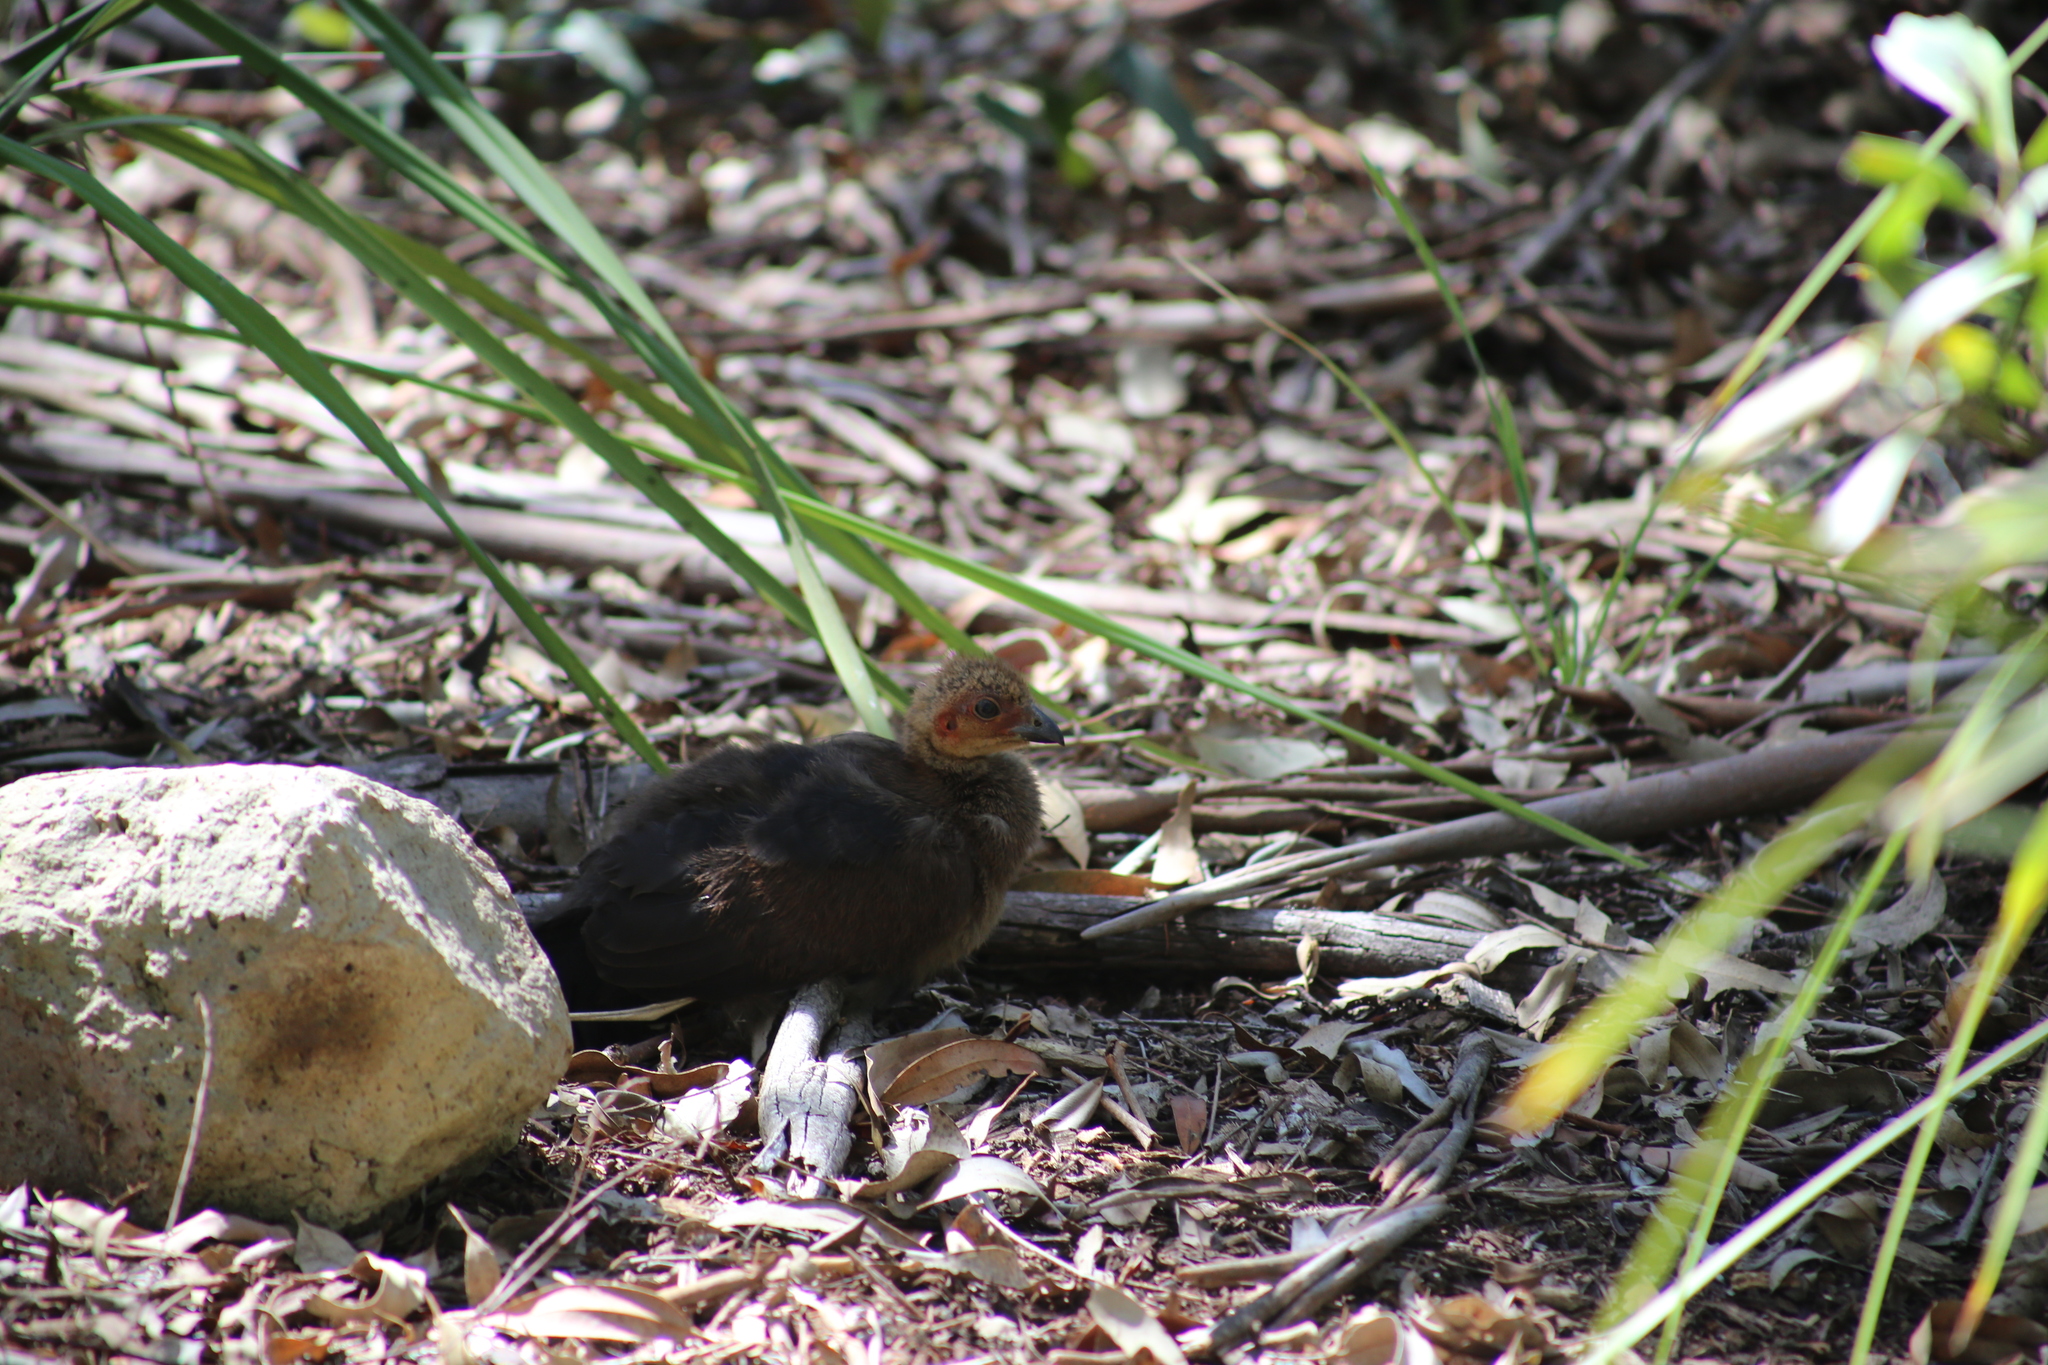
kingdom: Animalia
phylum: Chordata
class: Aves
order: Galliformes
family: Megapodiidae
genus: Alectura
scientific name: Alectura lathami
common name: Australian brushturkey
